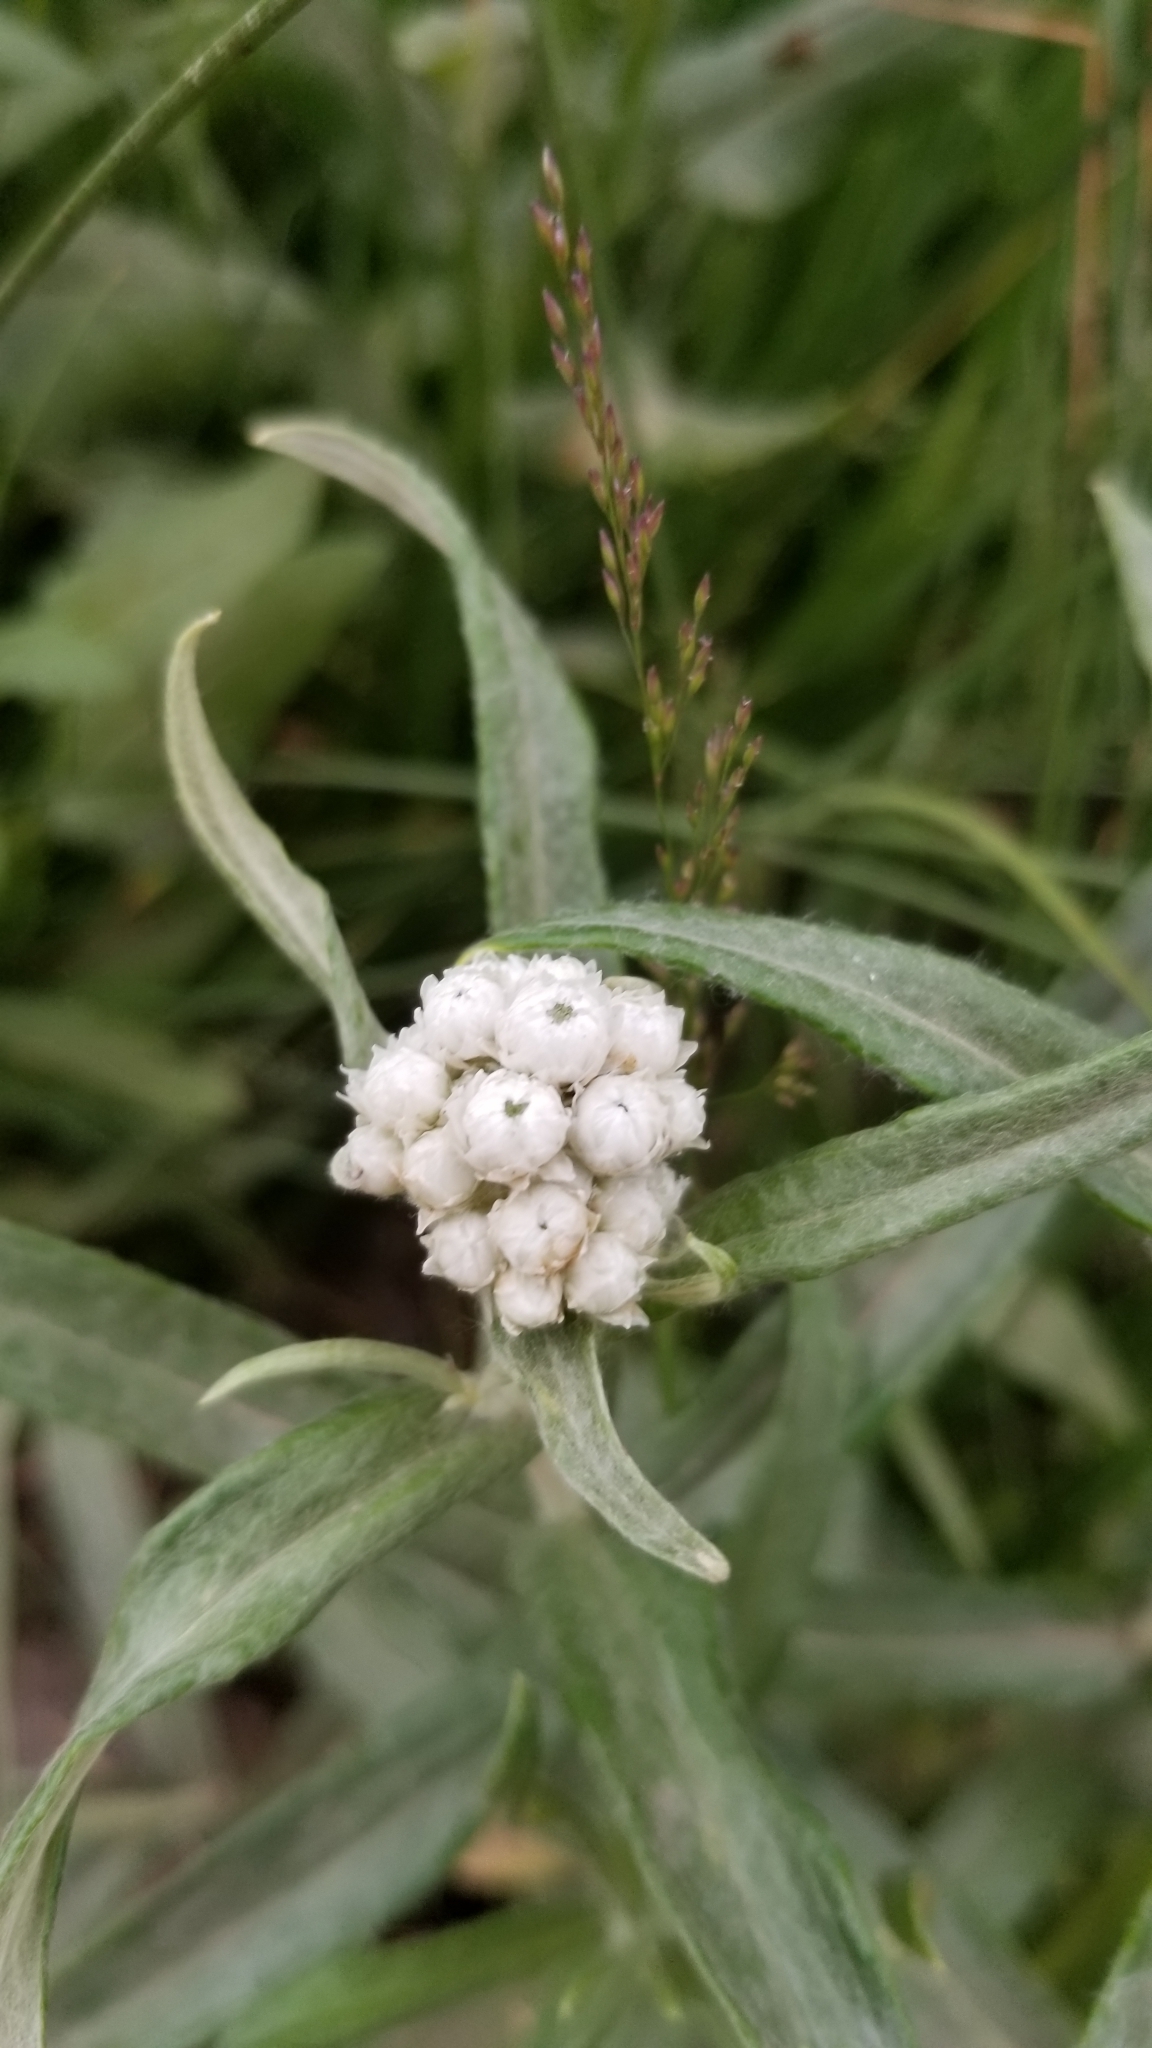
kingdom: Plantae
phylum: Tracheophyta
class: Magnoliopsida
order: Asterales
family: Asteraceae
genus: Anaphalis
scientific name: Anaphalis margaritacea
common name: Pearly everlasting
